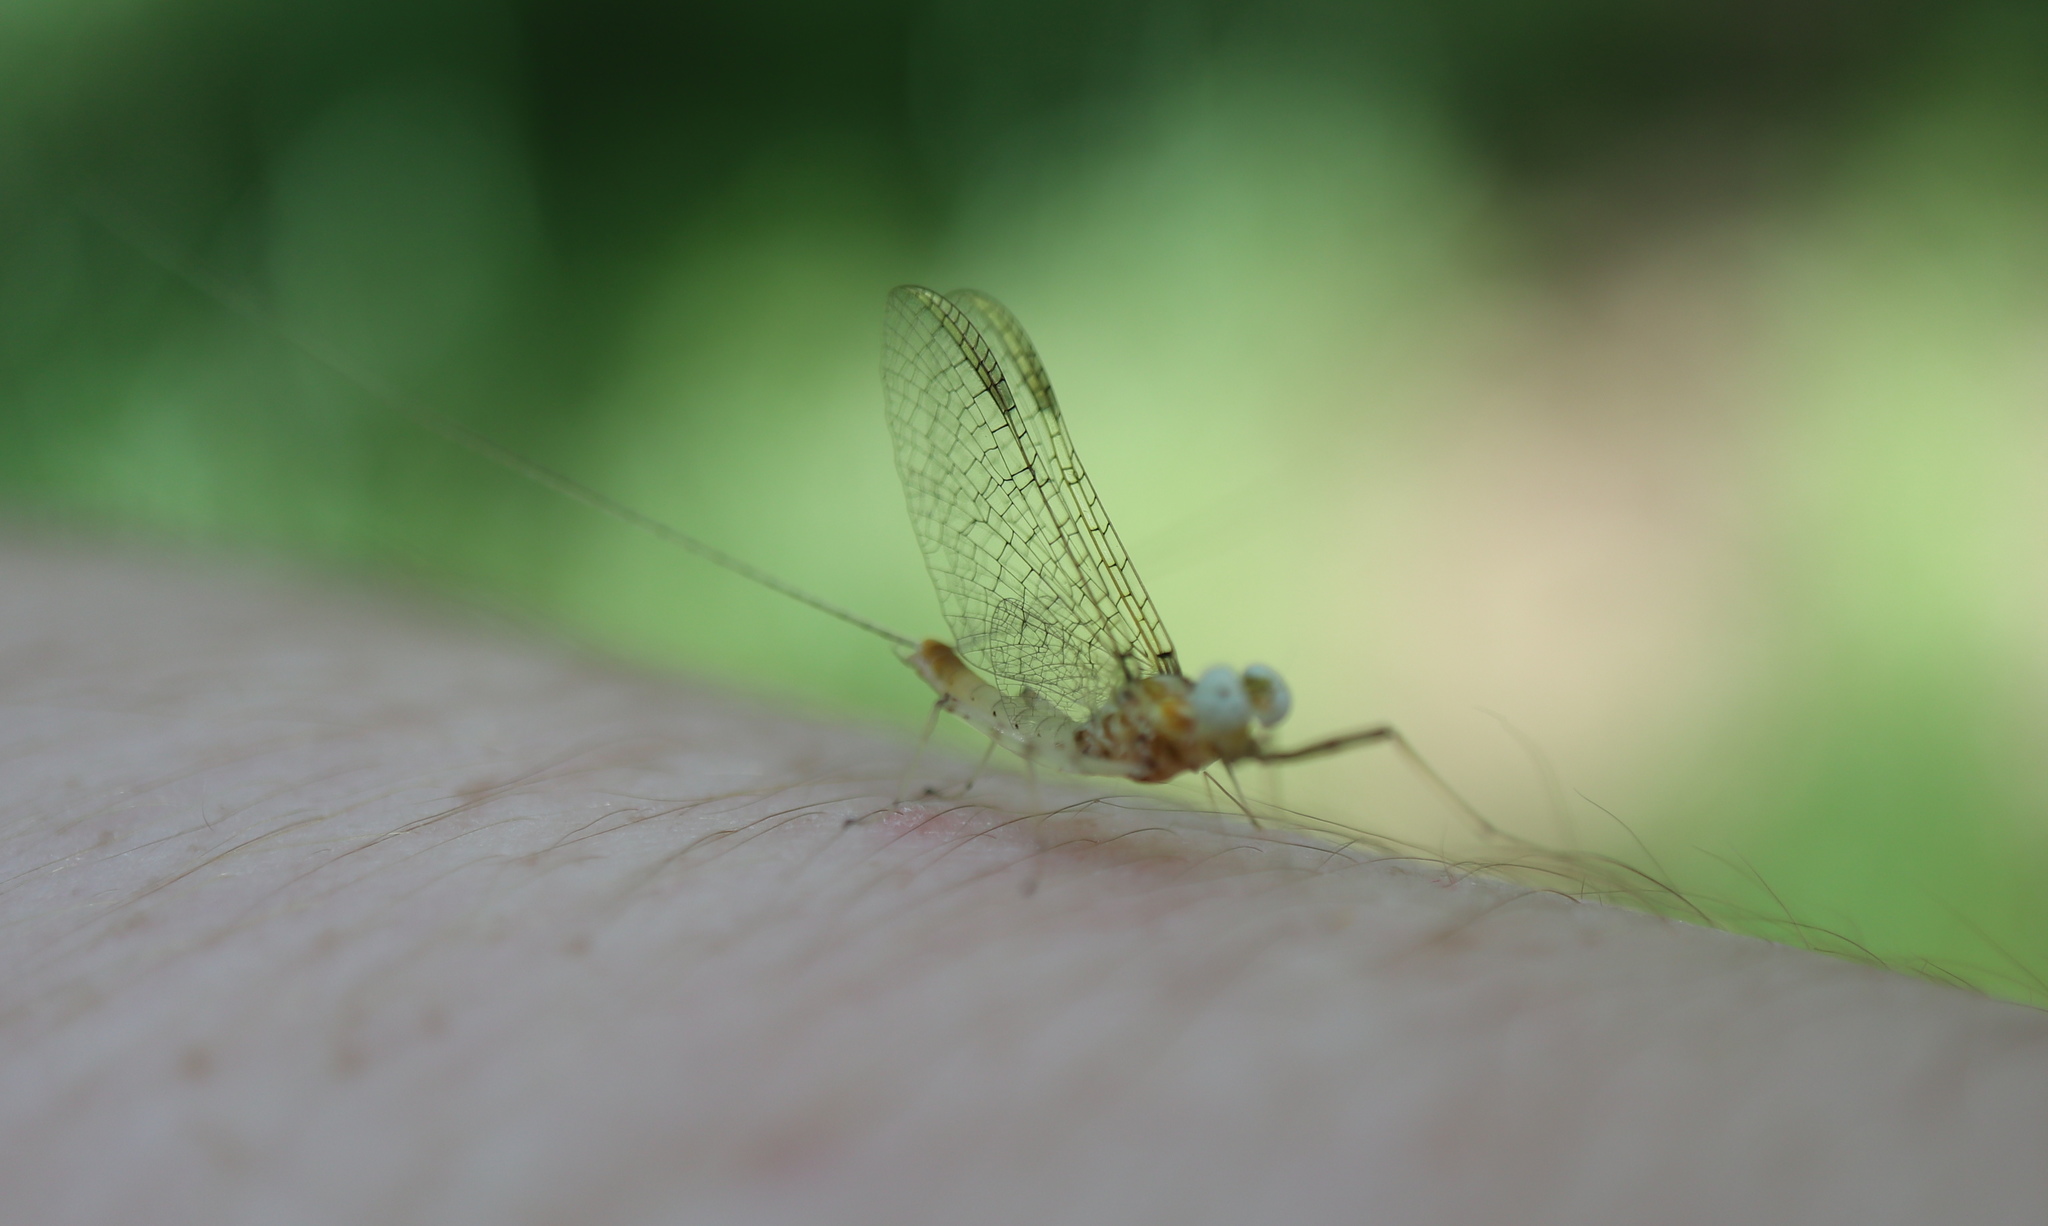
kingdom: Animalia
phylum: Arthropoda
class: Insecta
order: Ephemeroptera
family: Heptageniidae
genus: Maccaffertium
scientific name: Maccaffertium modestum
